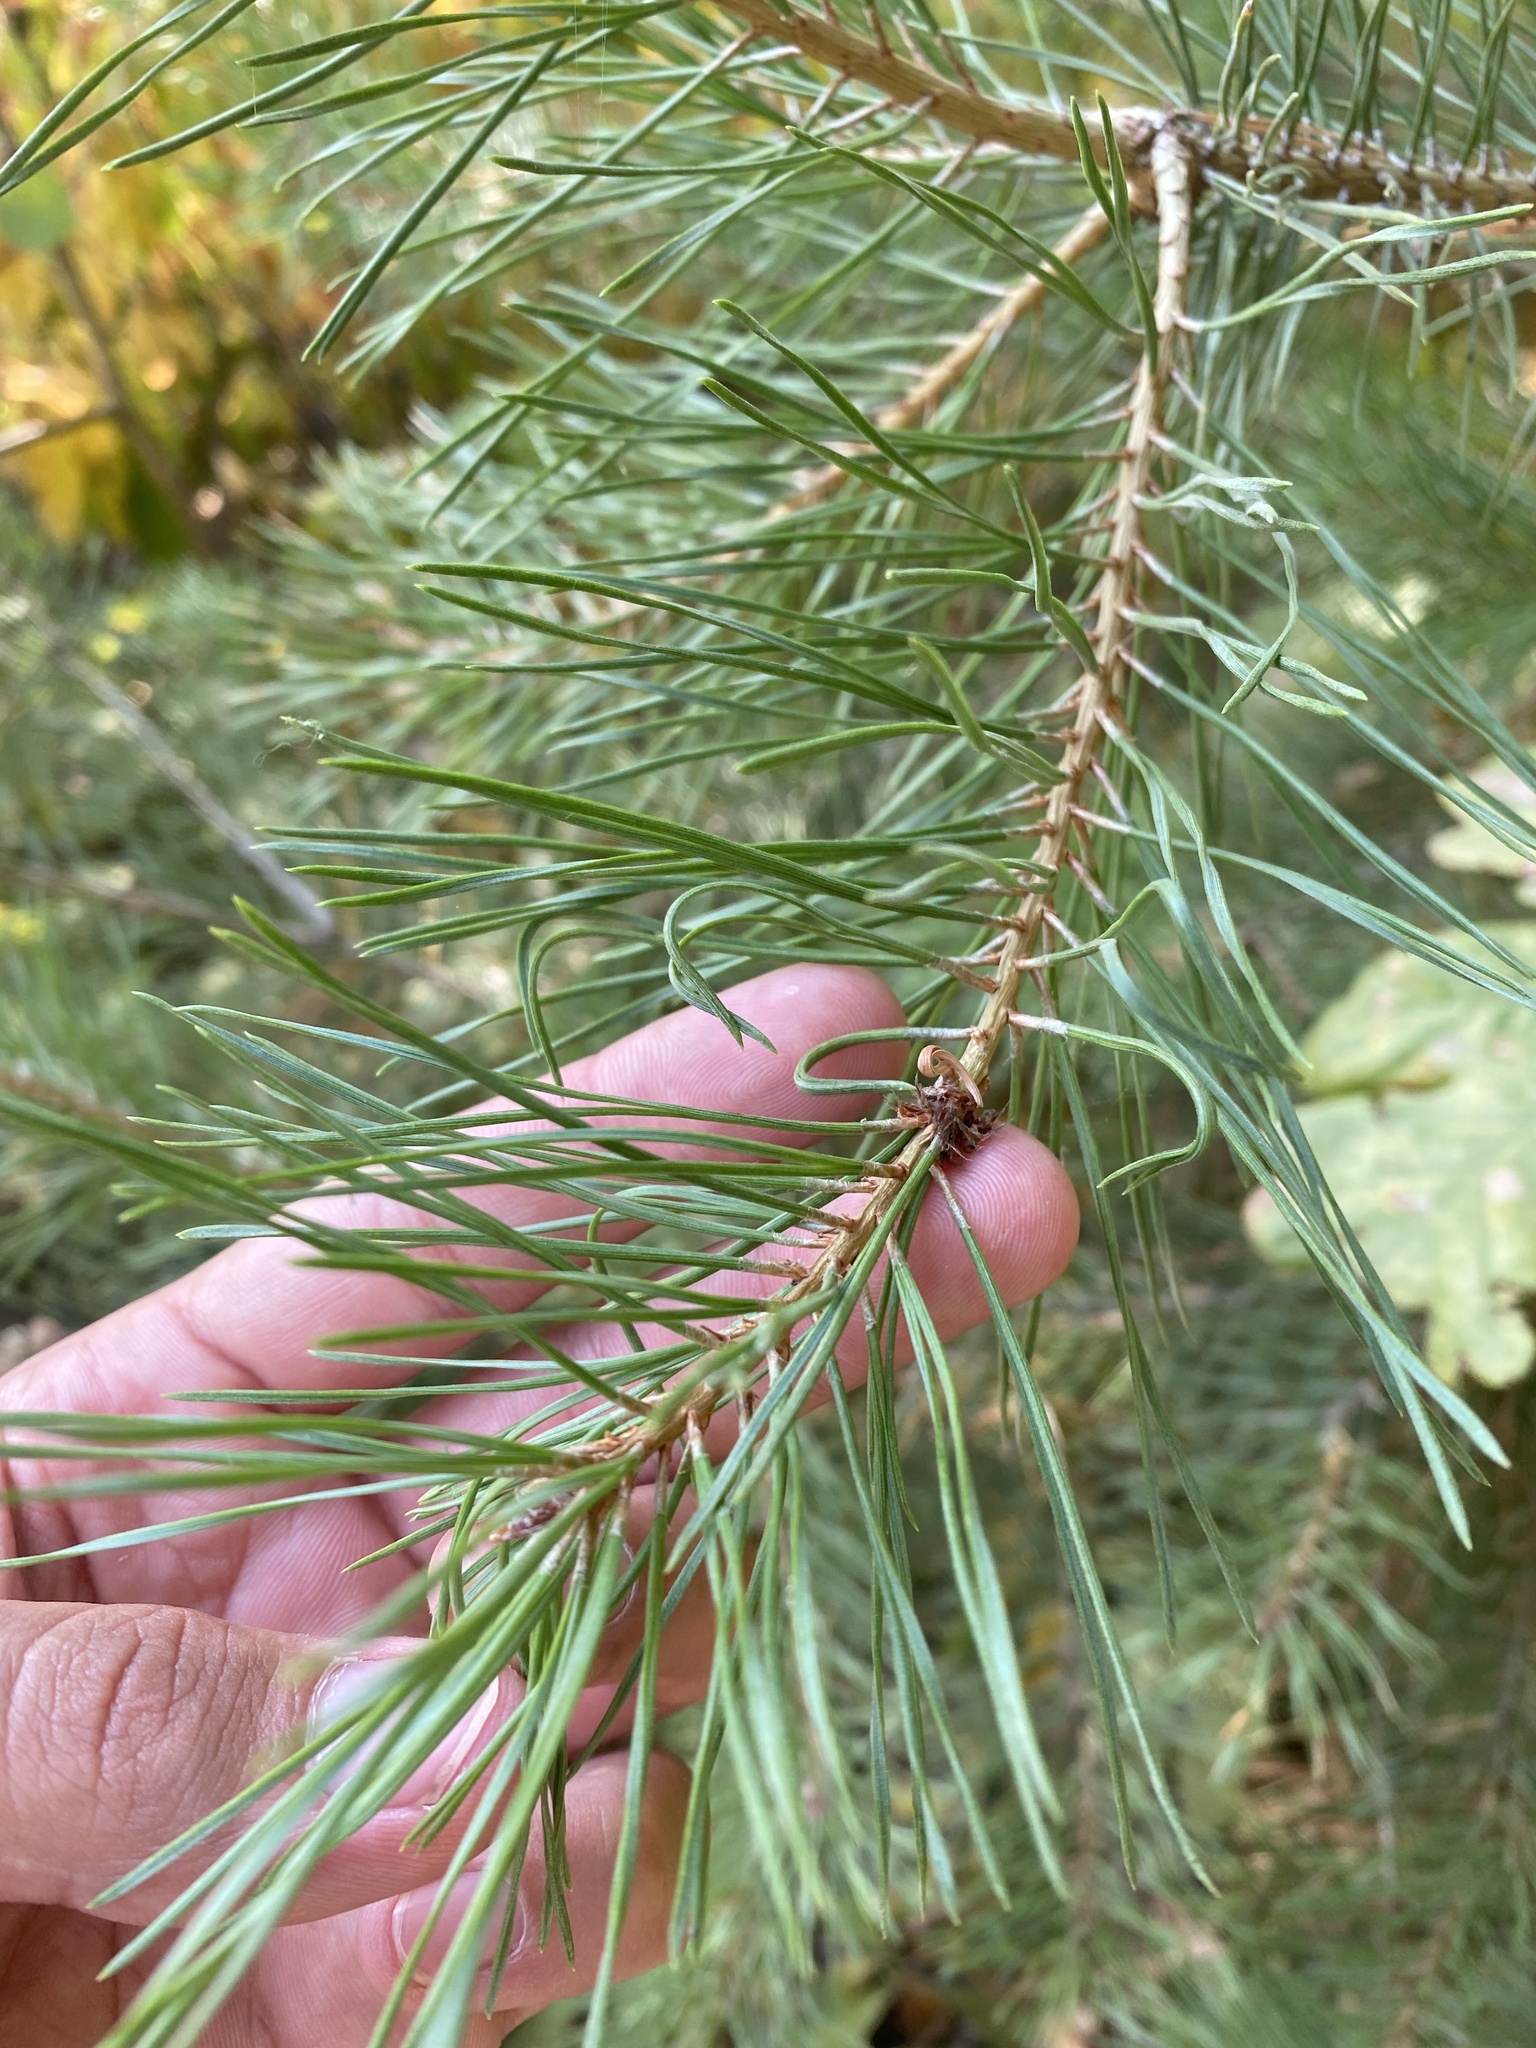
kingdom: Plantae
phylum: Tracheophyta
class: Pinopsida
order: Pinales
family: Pinaceae
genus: Pinus
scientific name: Pinus sylvestris
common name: Scots pine
